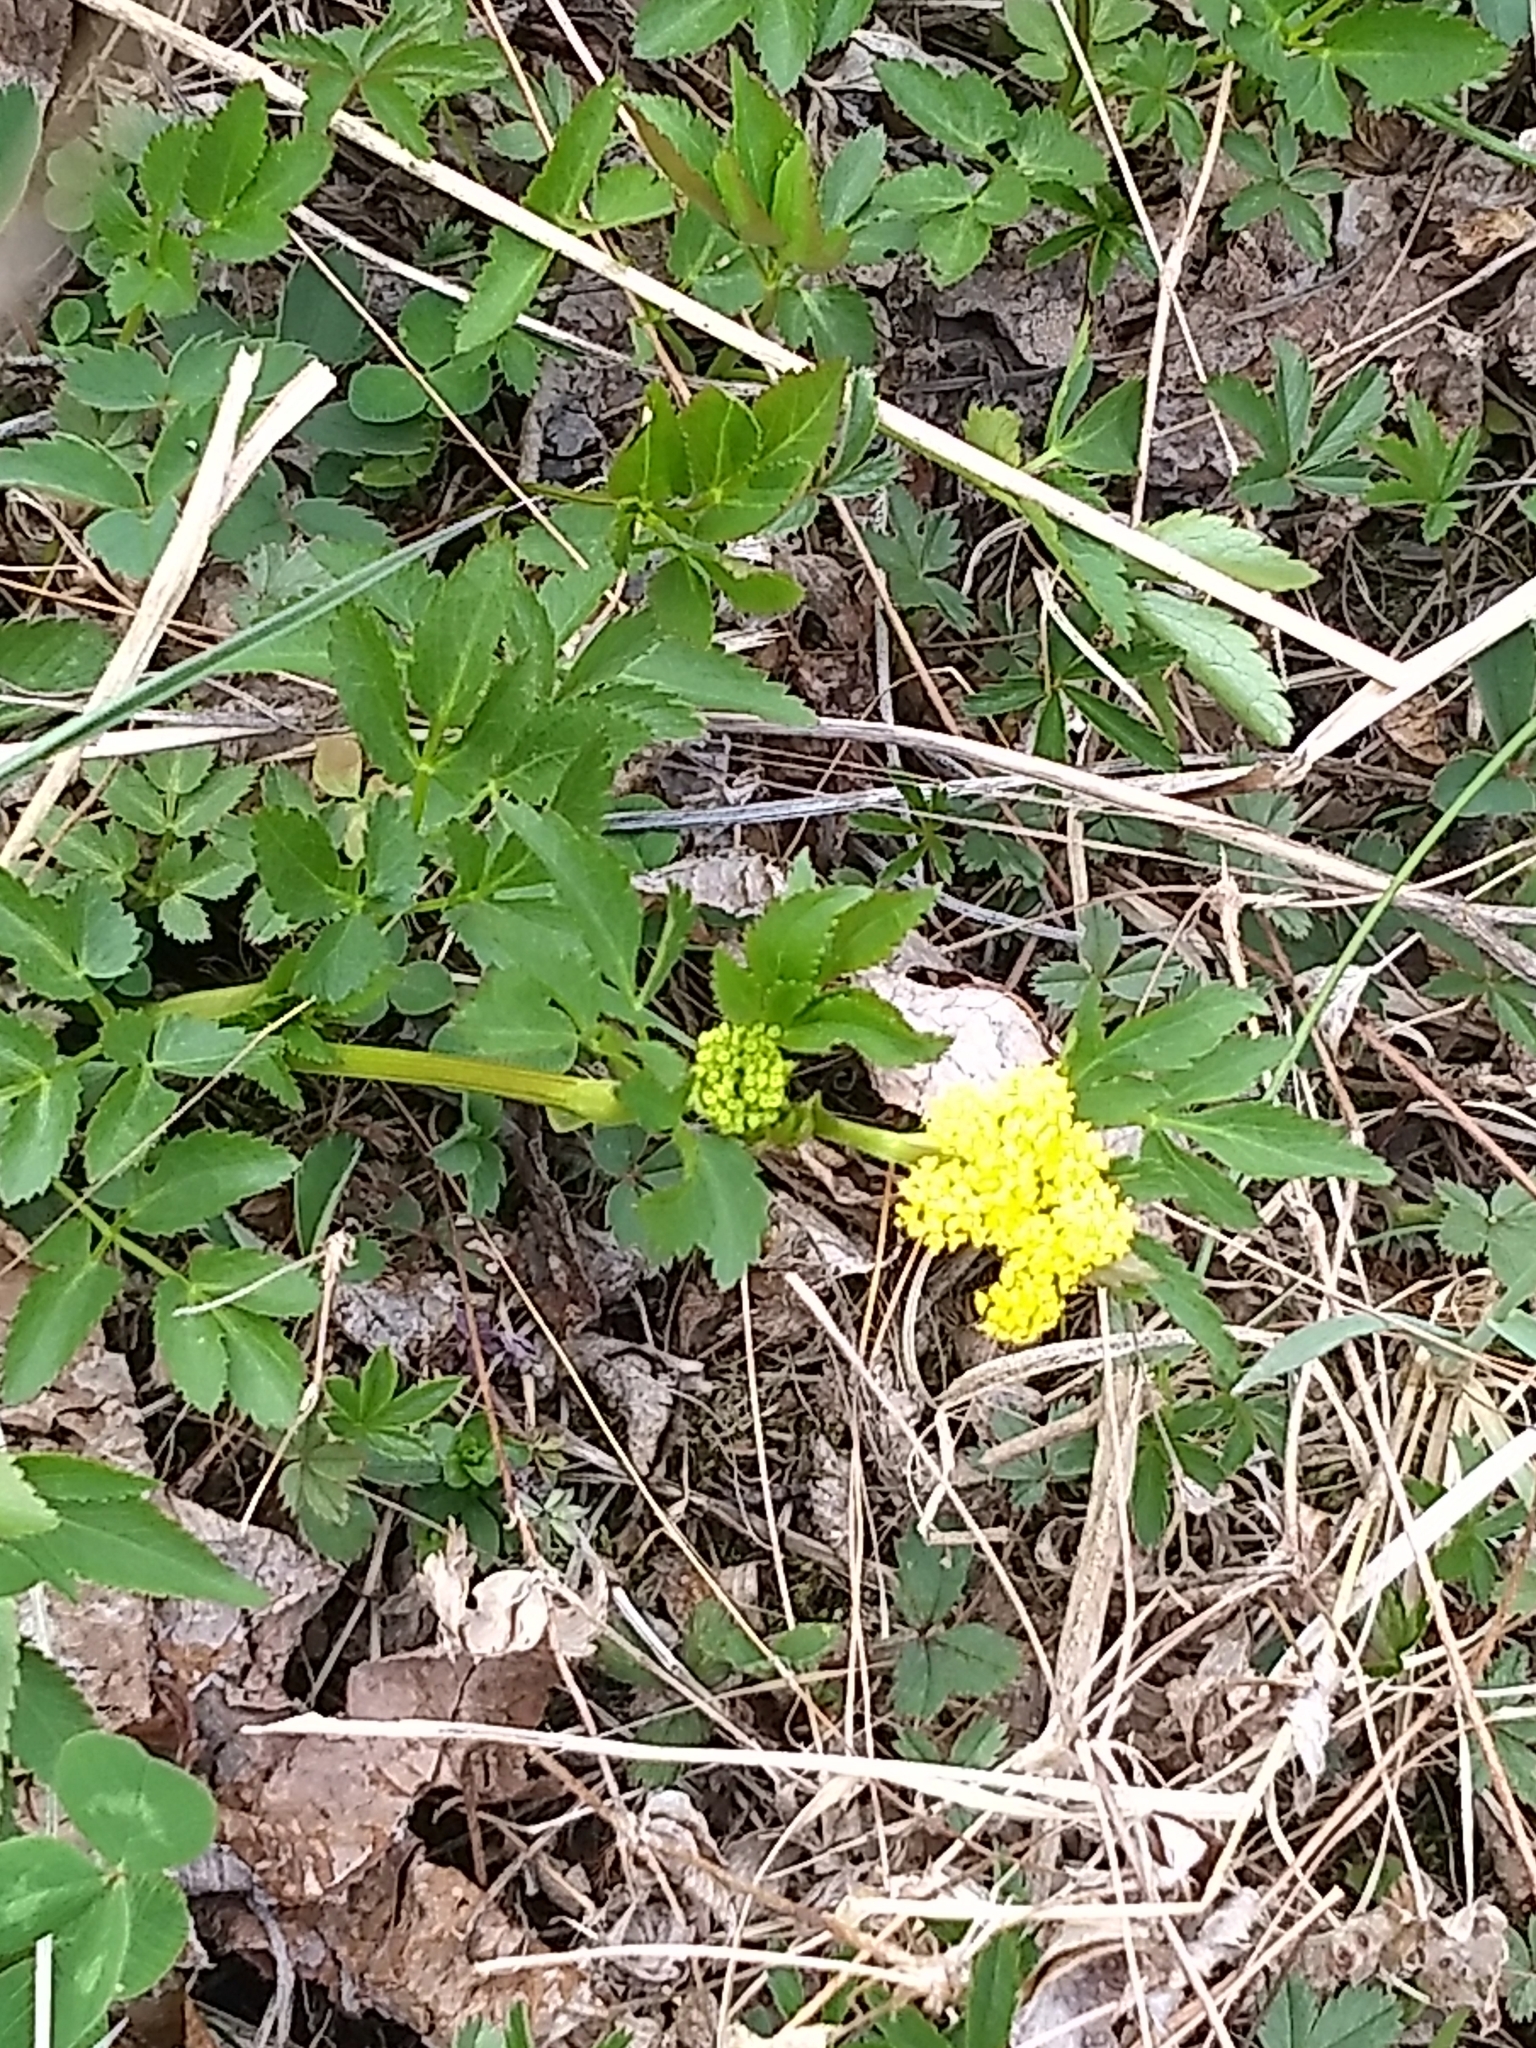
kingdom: Plantae
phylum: Tracheophyta
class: Magnoliopsida
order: Apiales
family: Apiaceae
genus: Zizia
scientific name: Zizia aurea
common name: Golden alexanders
